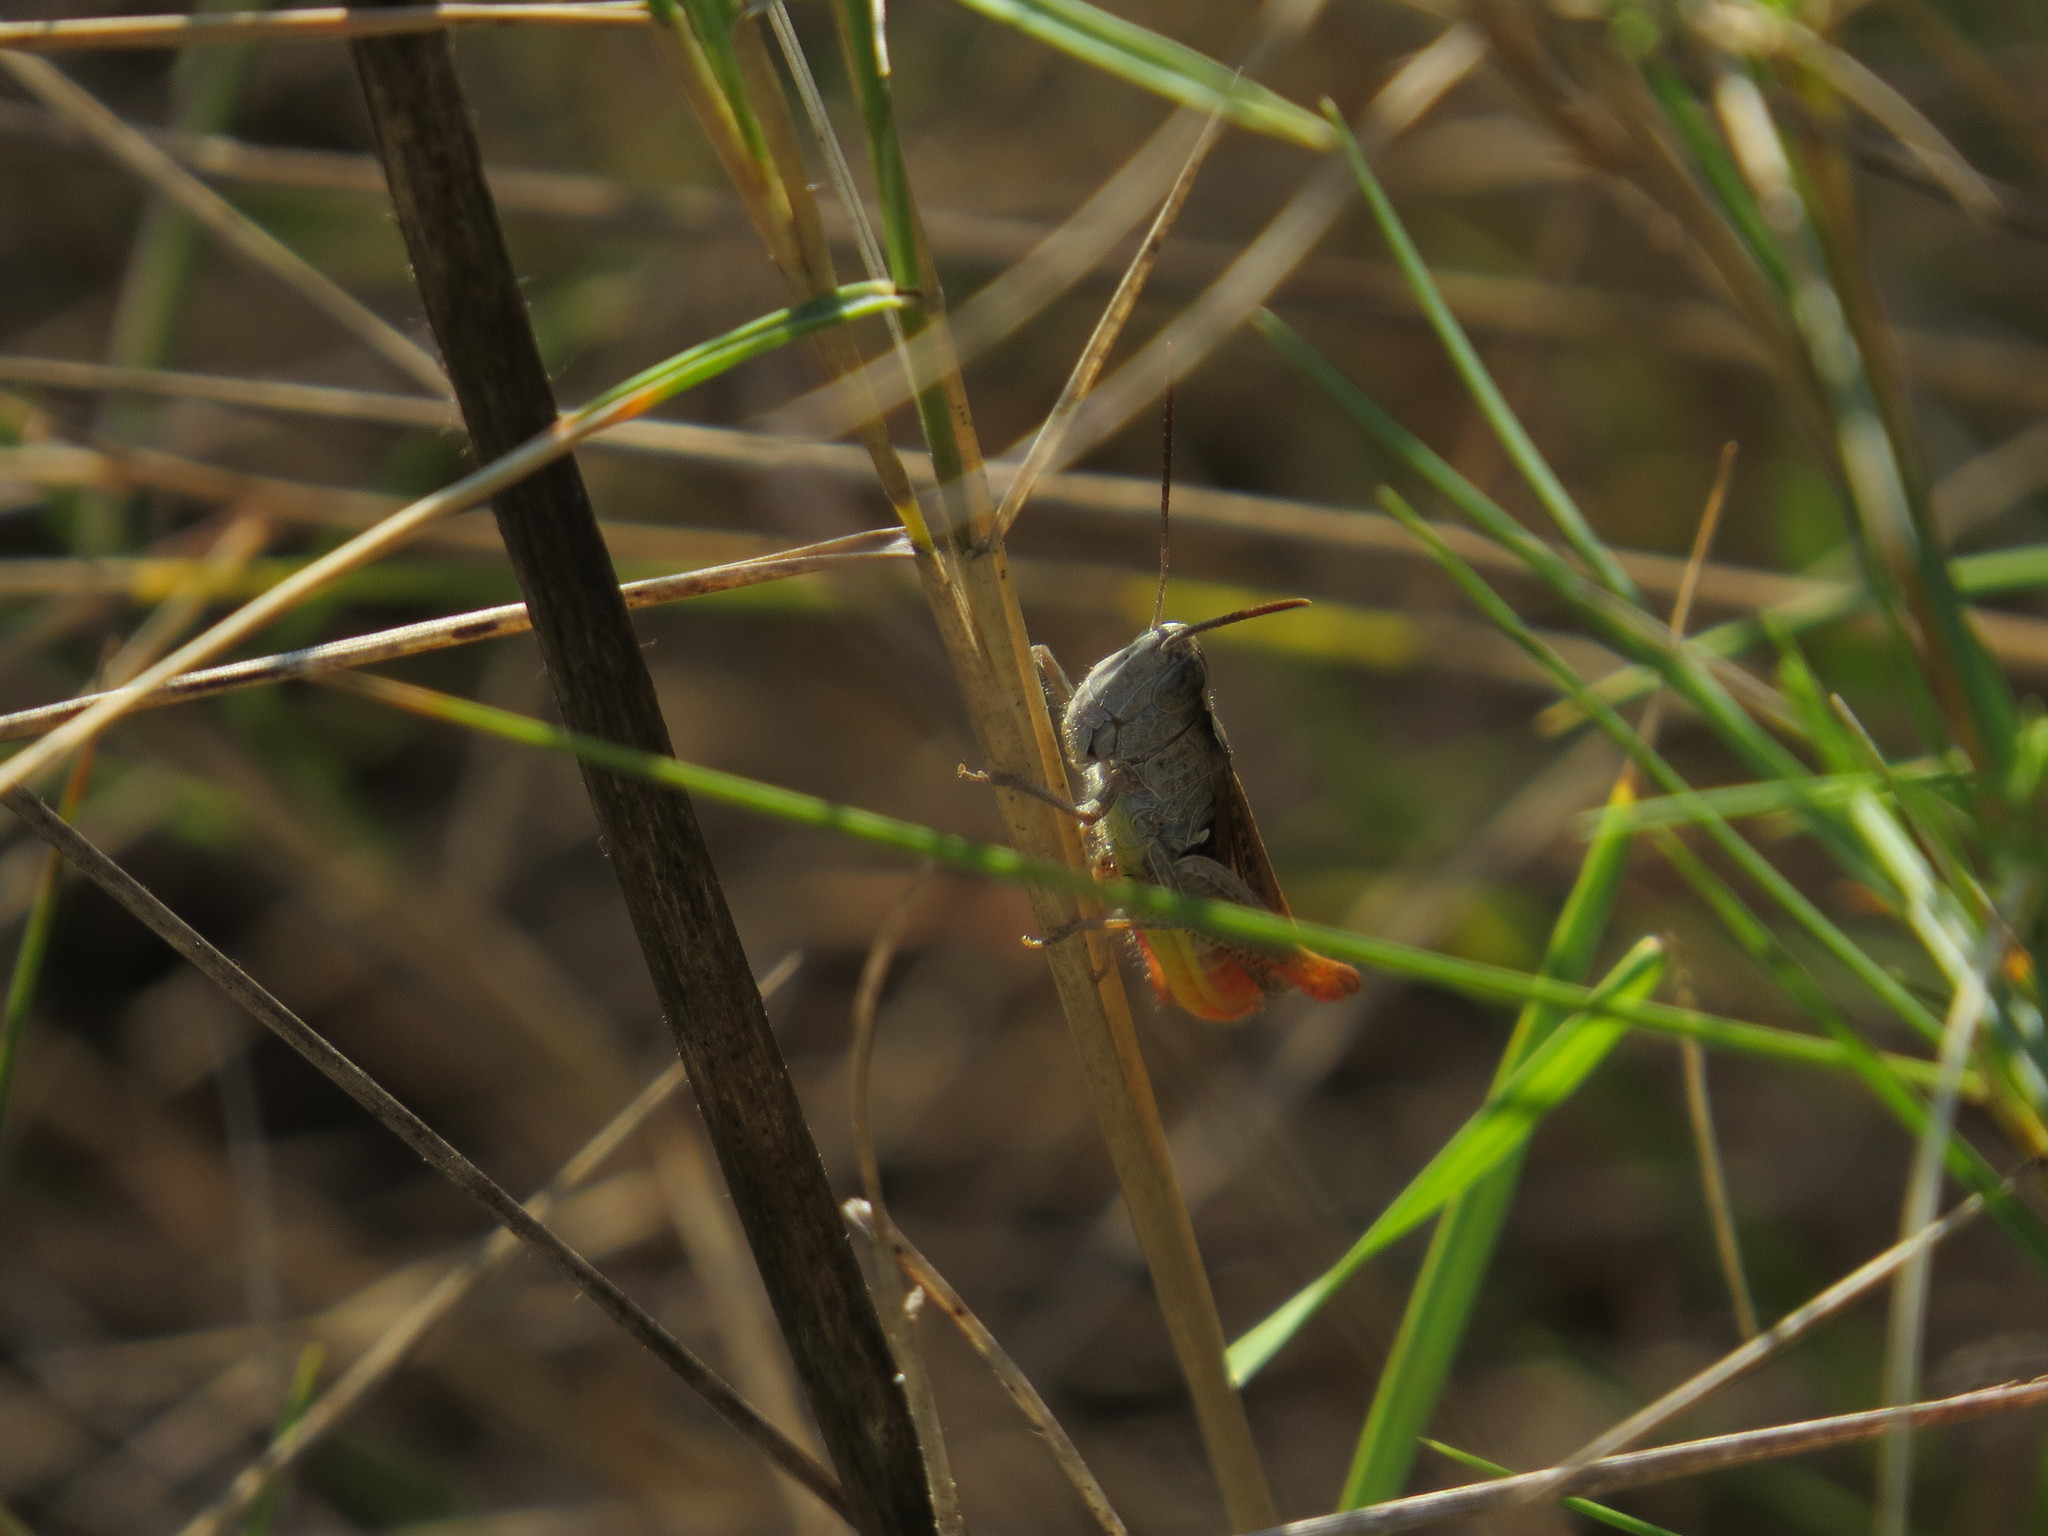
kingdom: Animalia
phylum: Arthropoda
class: Insecta
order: Orthoptera
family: Acrididae
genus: Chorthippus
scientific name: Chorthippus vagans
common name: Heath grasshopper
